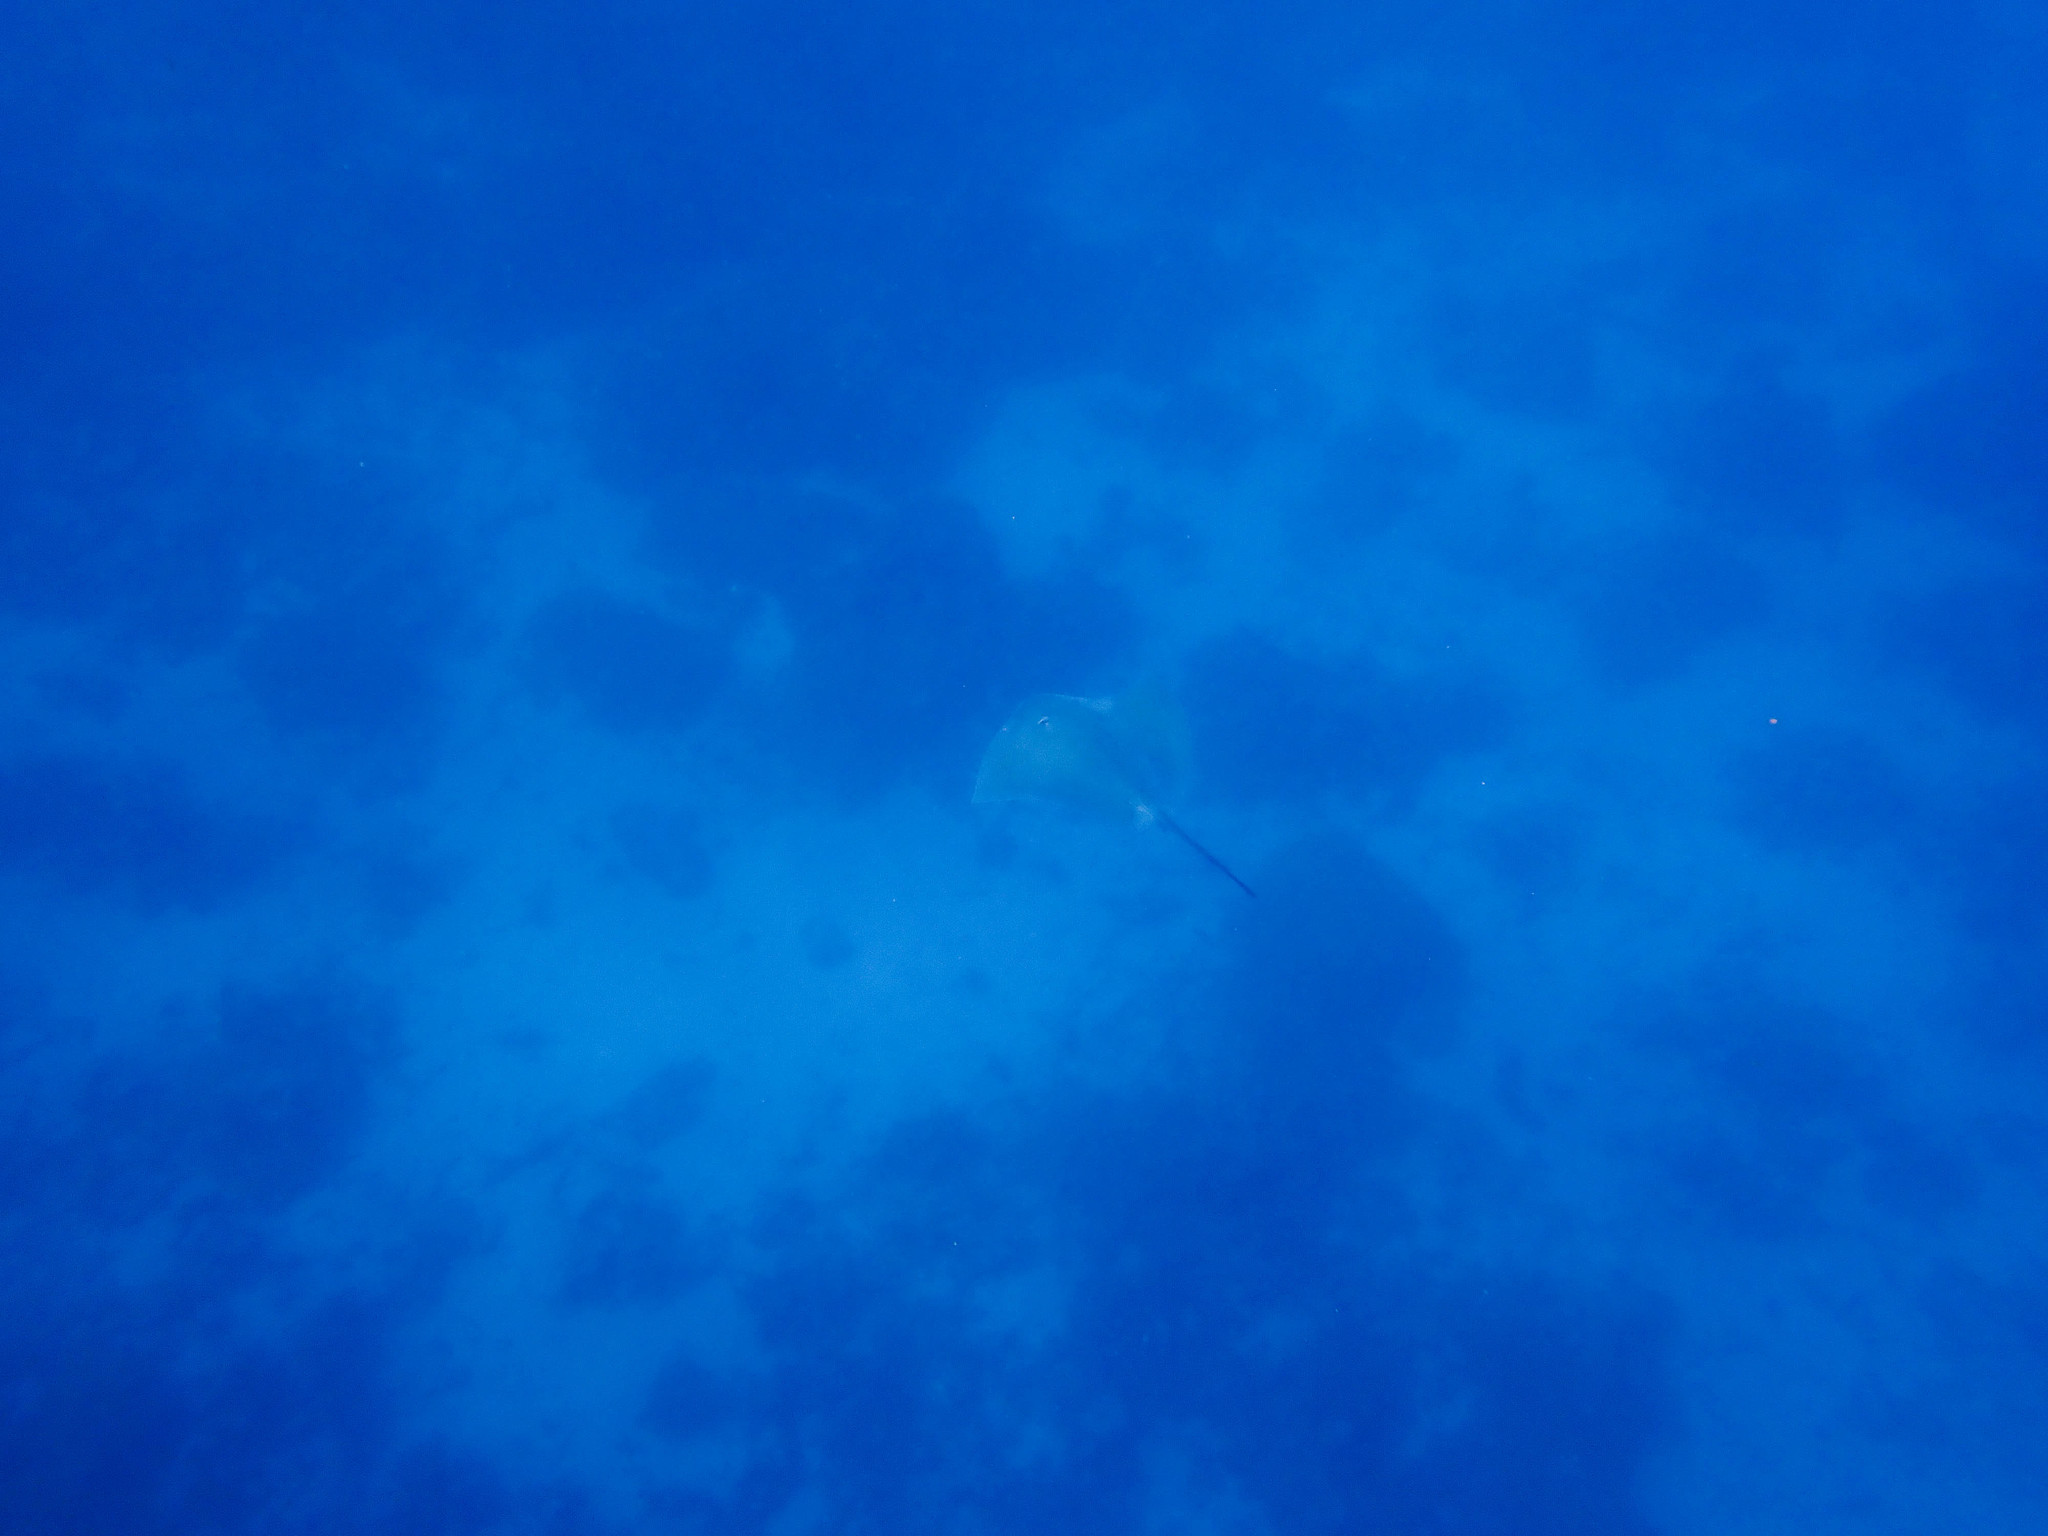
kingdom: Animalia
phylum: Chordata
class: Elasmobranchii
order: Myliobatiformes
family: Dasyatidae
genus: Pateobatis
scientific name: Pateobatis fai
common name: Pink whipray
